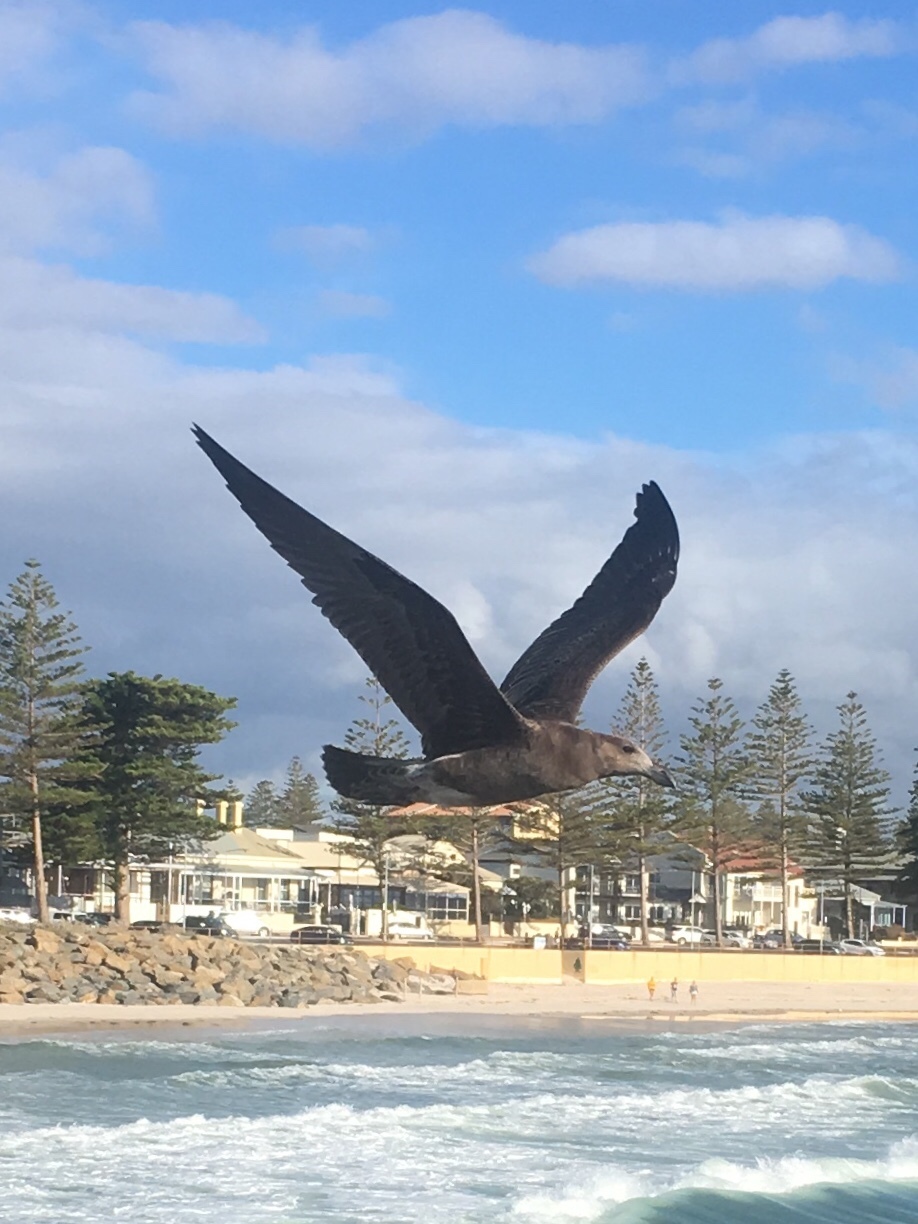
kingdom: Animalia
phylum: Chordata
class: Aves
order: Charadriiformes
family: Laridae
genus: Larus
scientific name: Larus pacificus
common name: Pacific gull
